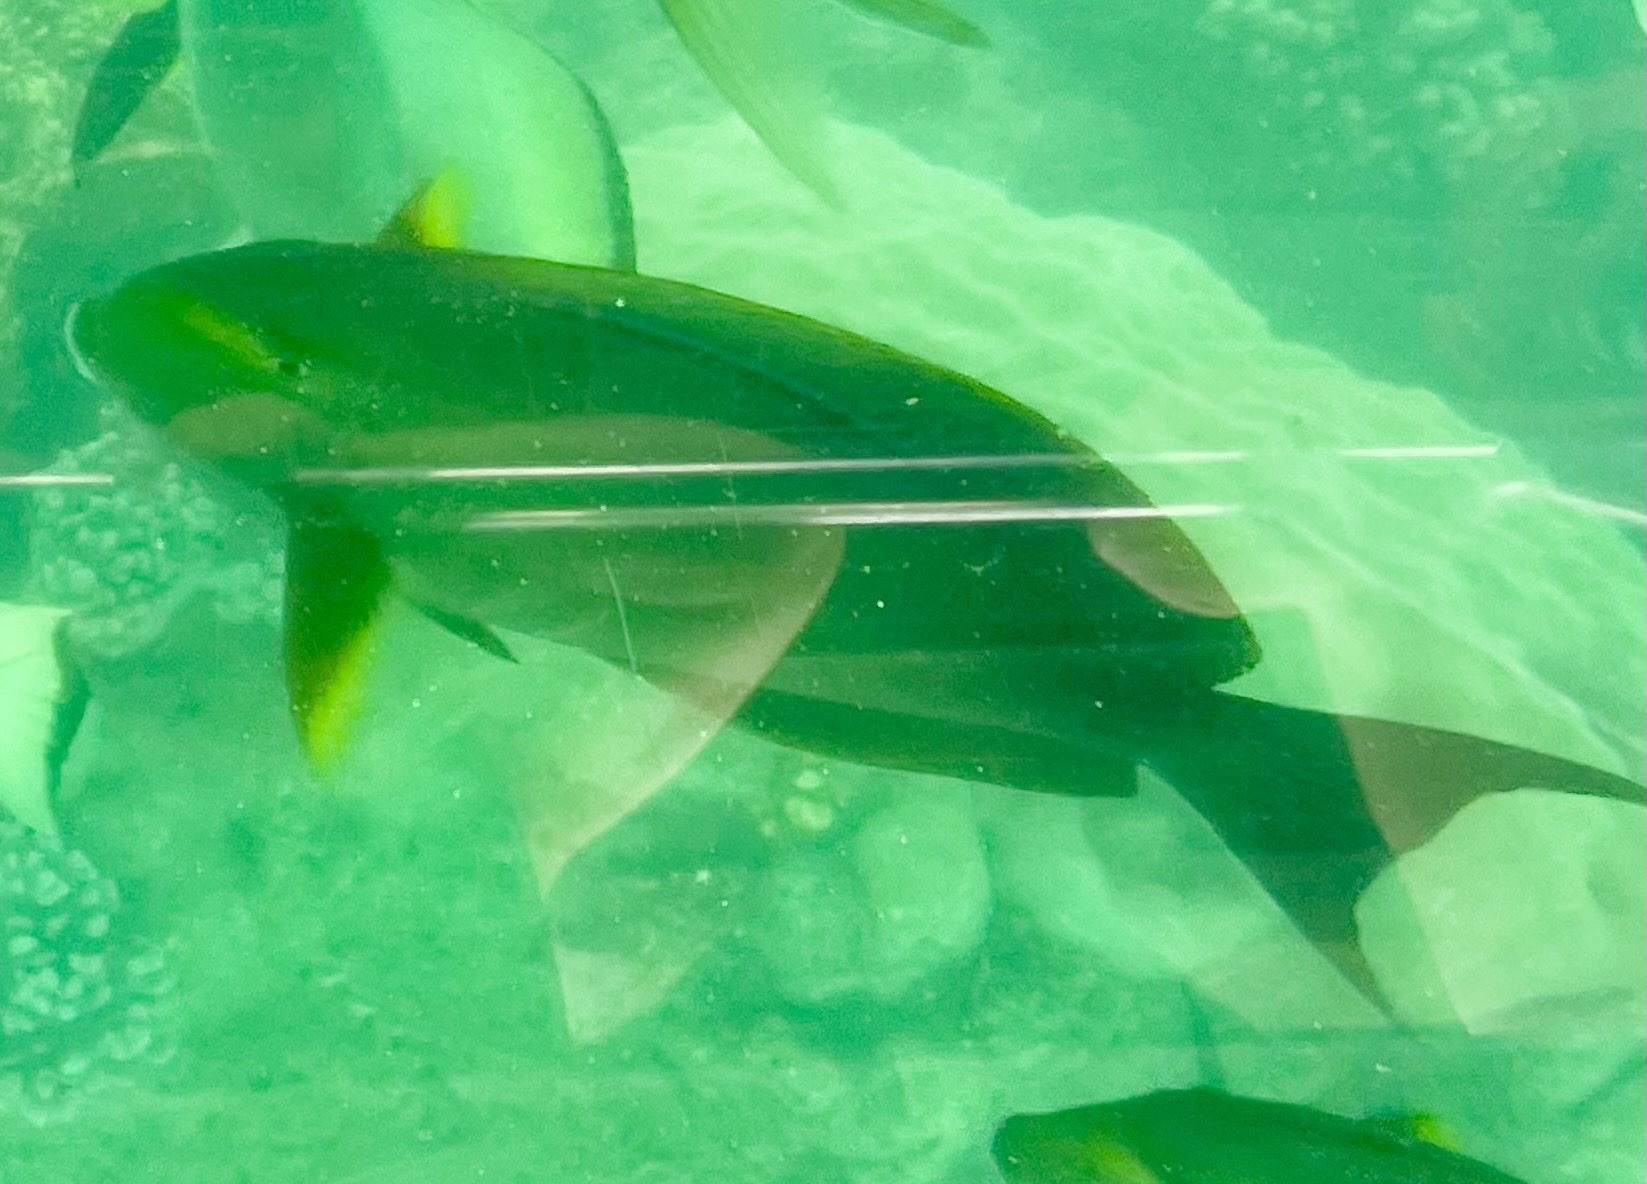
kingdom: Animalia
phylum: Chordata
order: Perciformes
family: Acanthuridae
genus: Acanthurus
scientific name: Acanthurus xanthopterus
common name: Cuvier's surgeonfish
